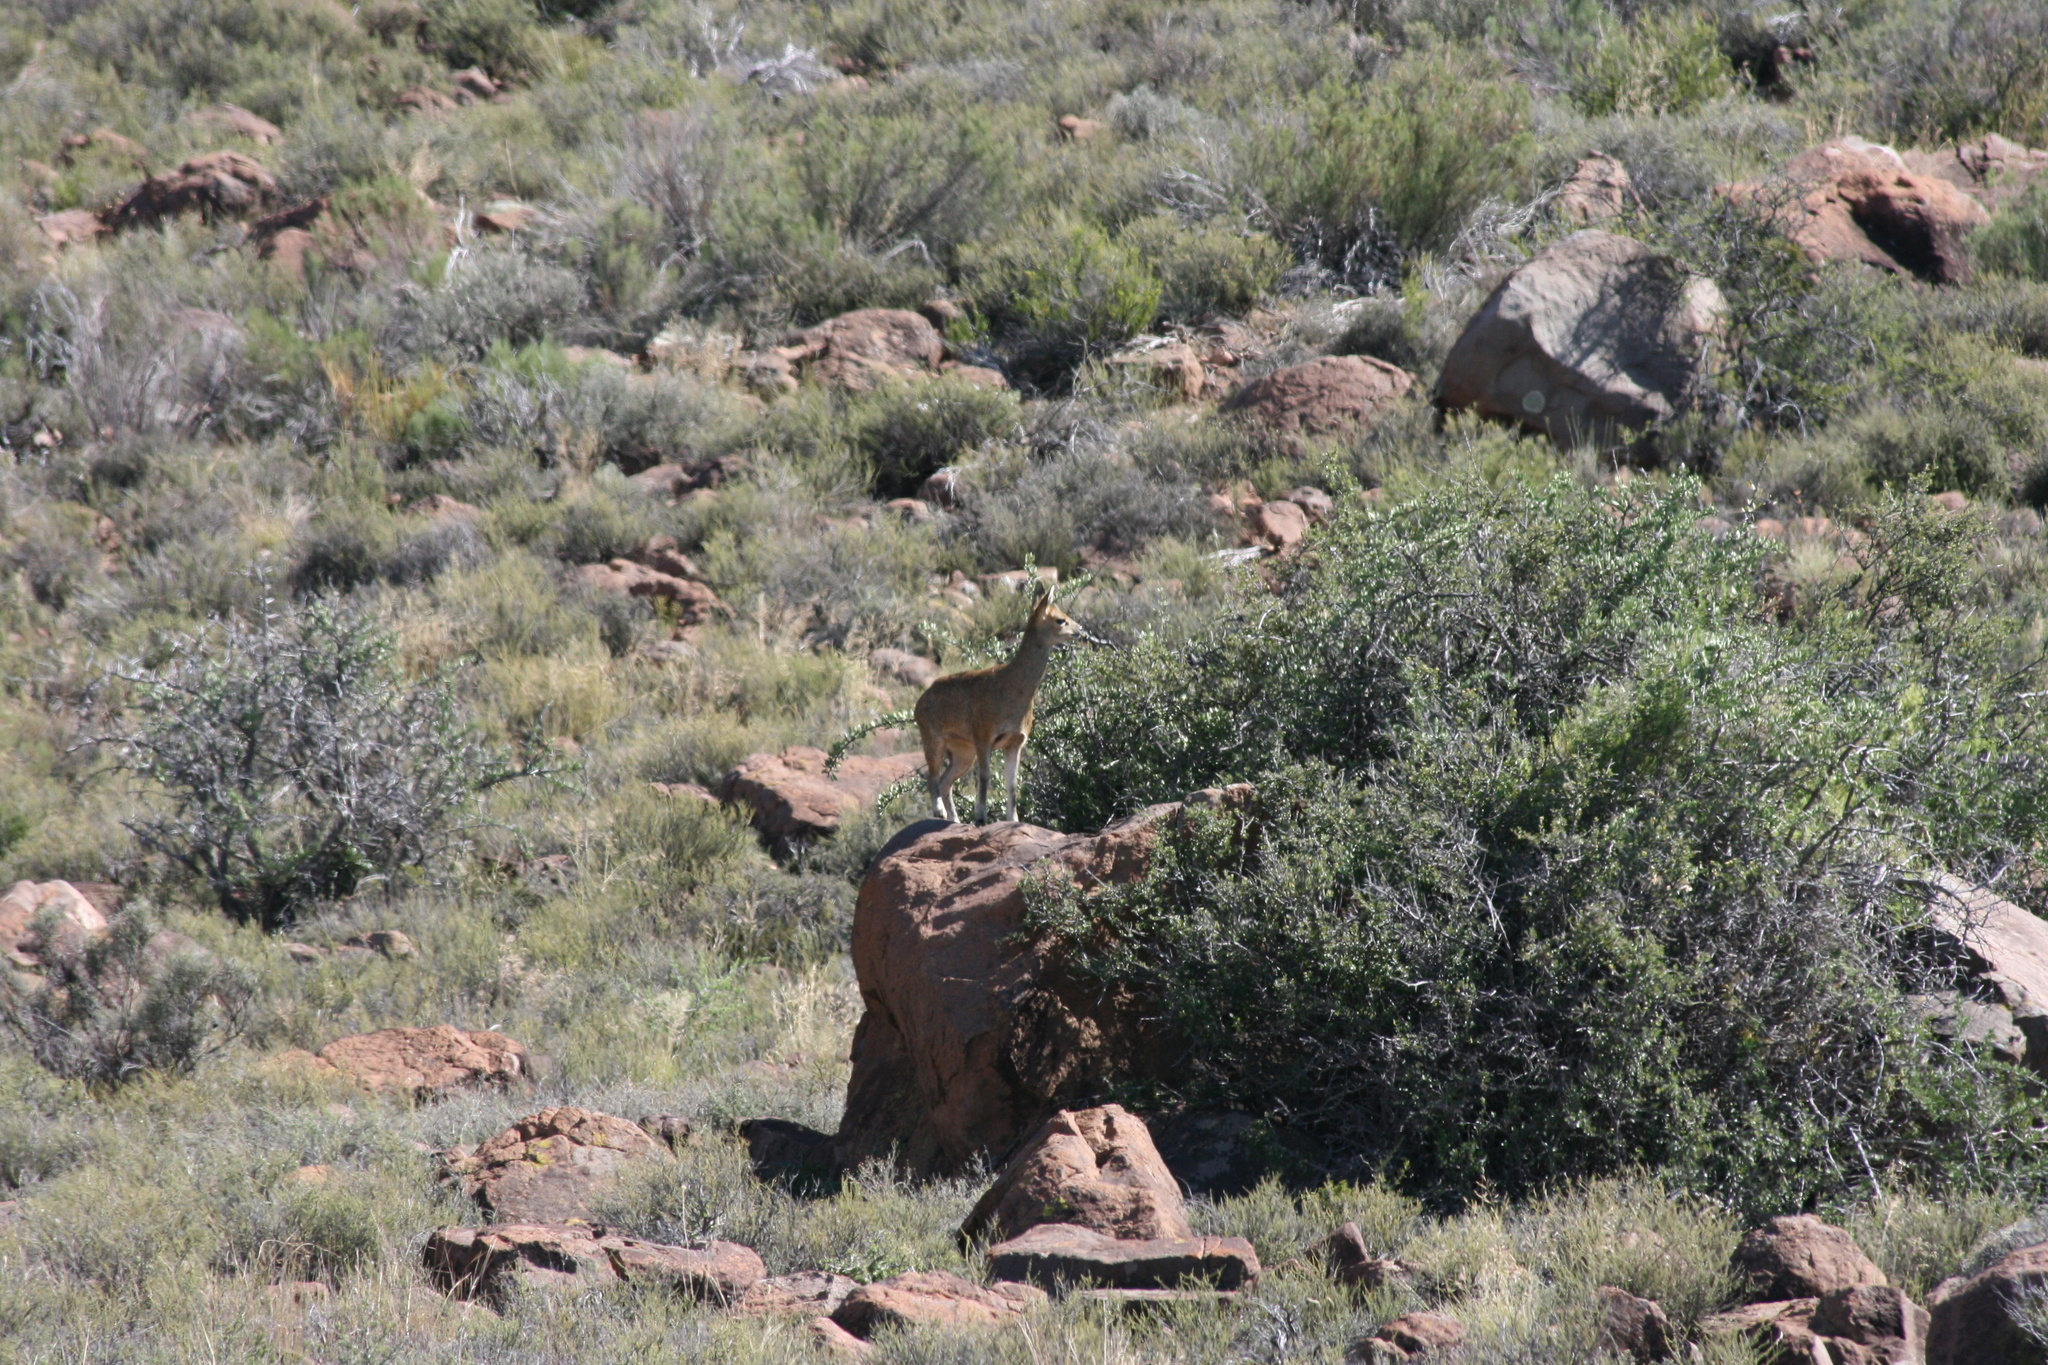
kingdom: Animalia
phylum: Chordata
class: Mammalia
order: Artiodactyla
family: Bovidae
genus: Oreotragus
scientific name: Oreotragus oreotragus
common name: Klipspringer
